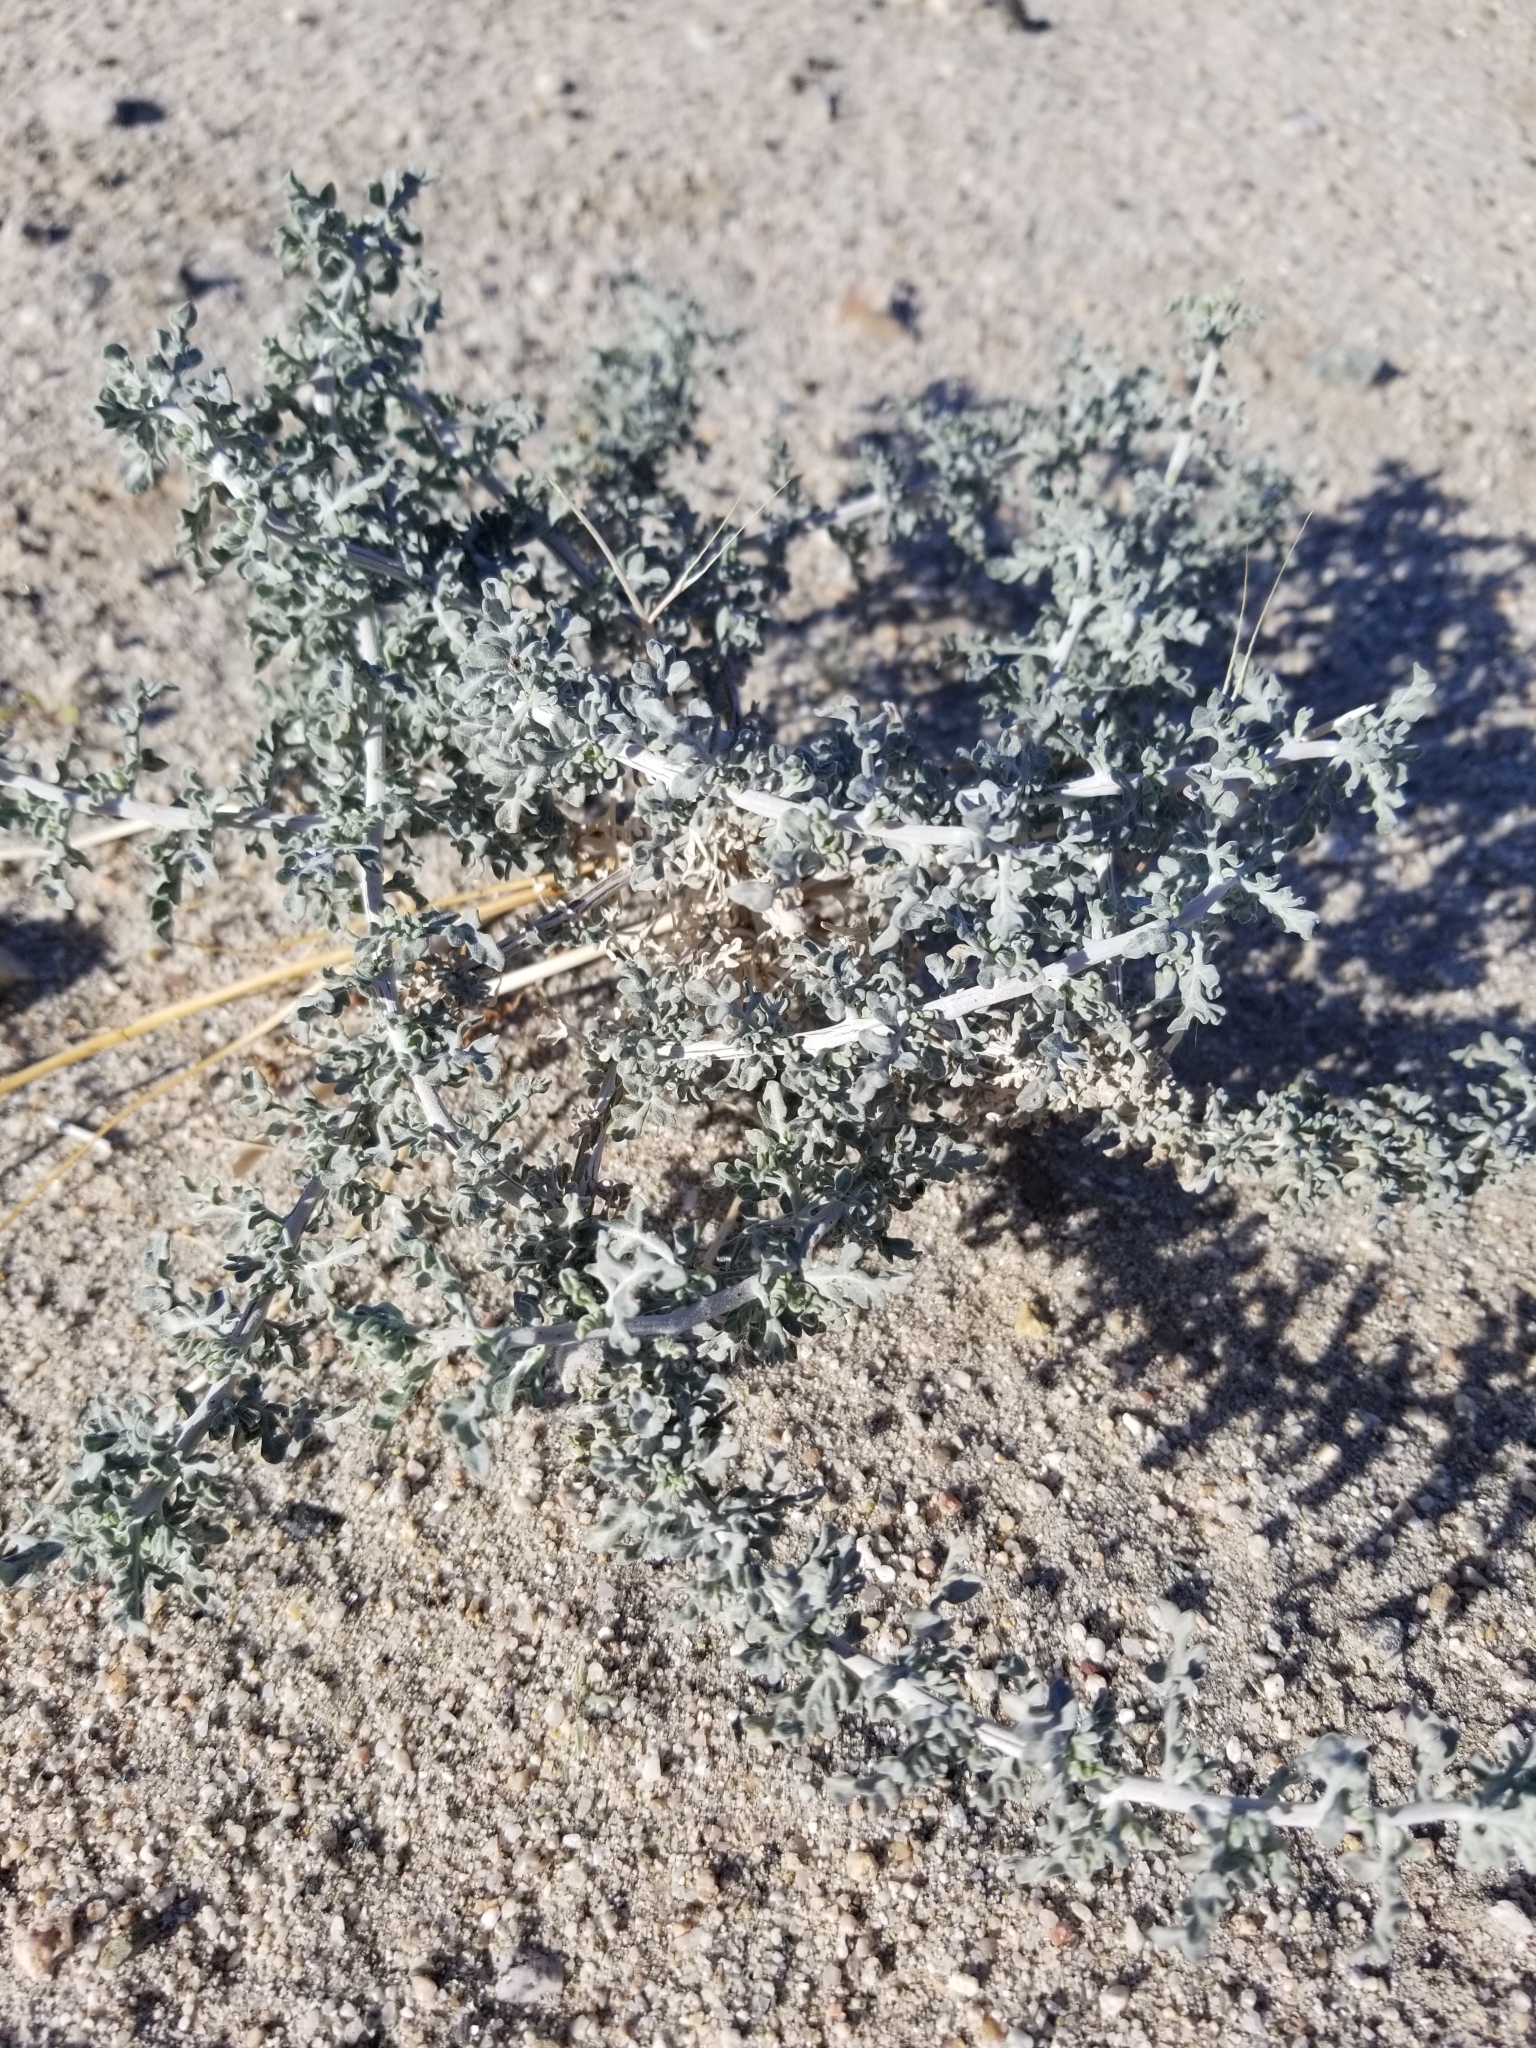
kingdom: Plantae
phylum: Tracheophyta
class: Magnoliopsida
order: Asterales
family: Asteraceae
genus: Ambrosia
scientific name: Ambrosia dumosa
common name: Bur-sage
